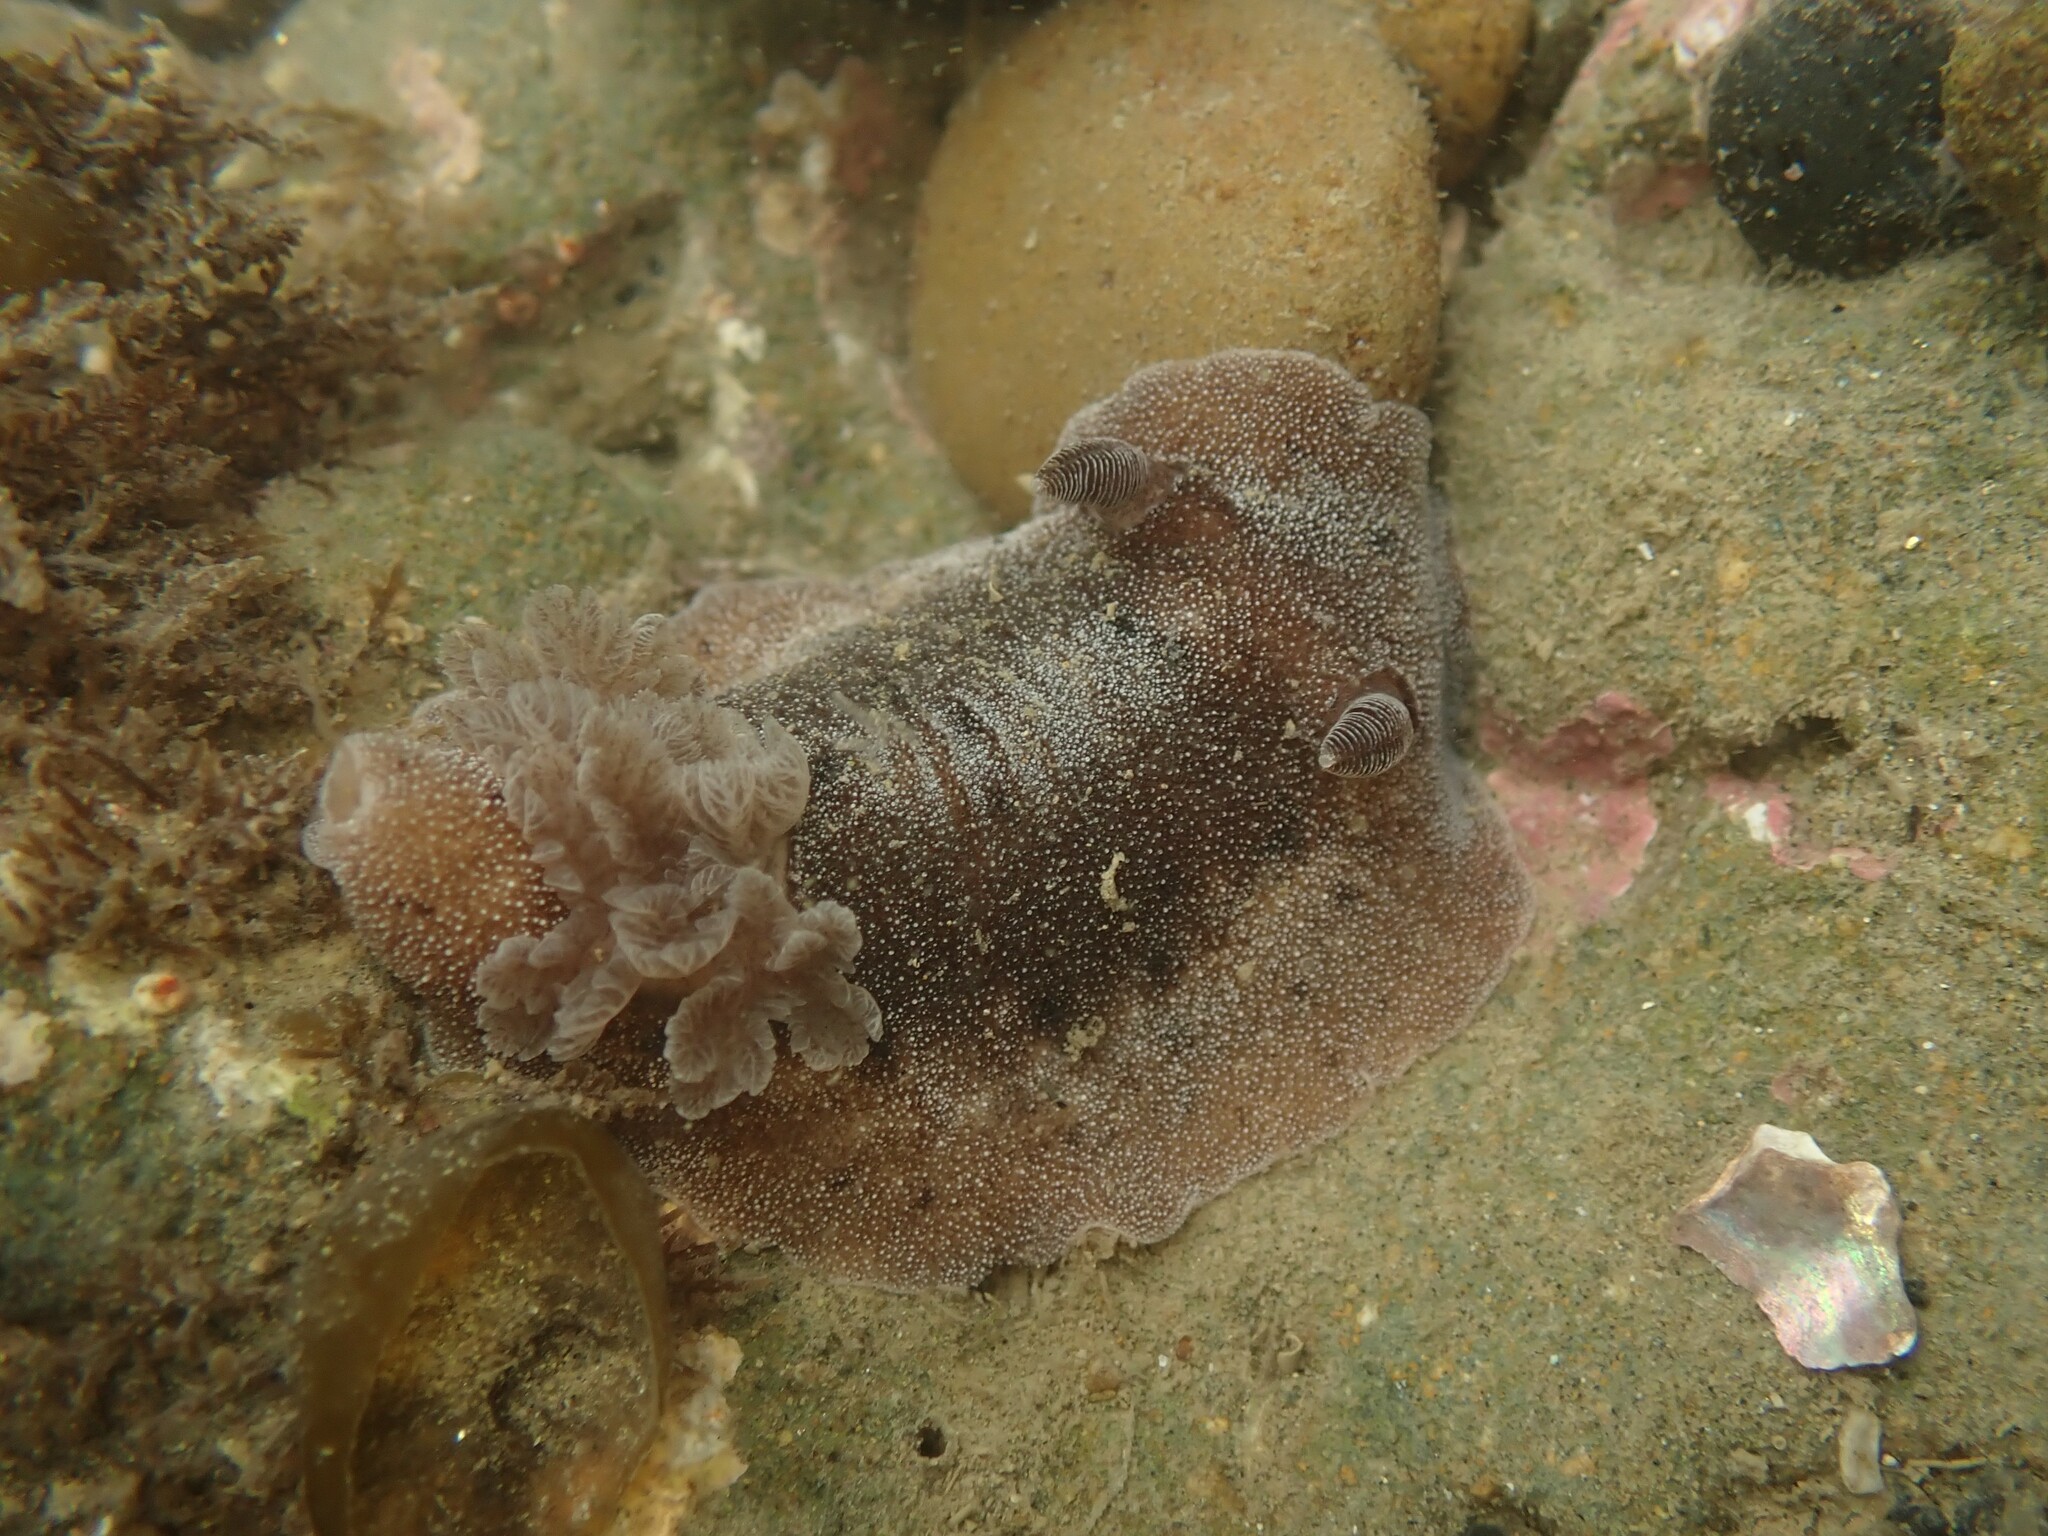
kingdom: Animalia
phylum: Mollusca
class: Gastropoda
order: Nudibranchia
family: Discodorididae
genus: Alloiodoris
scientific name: Alloiodoris lanuginata
